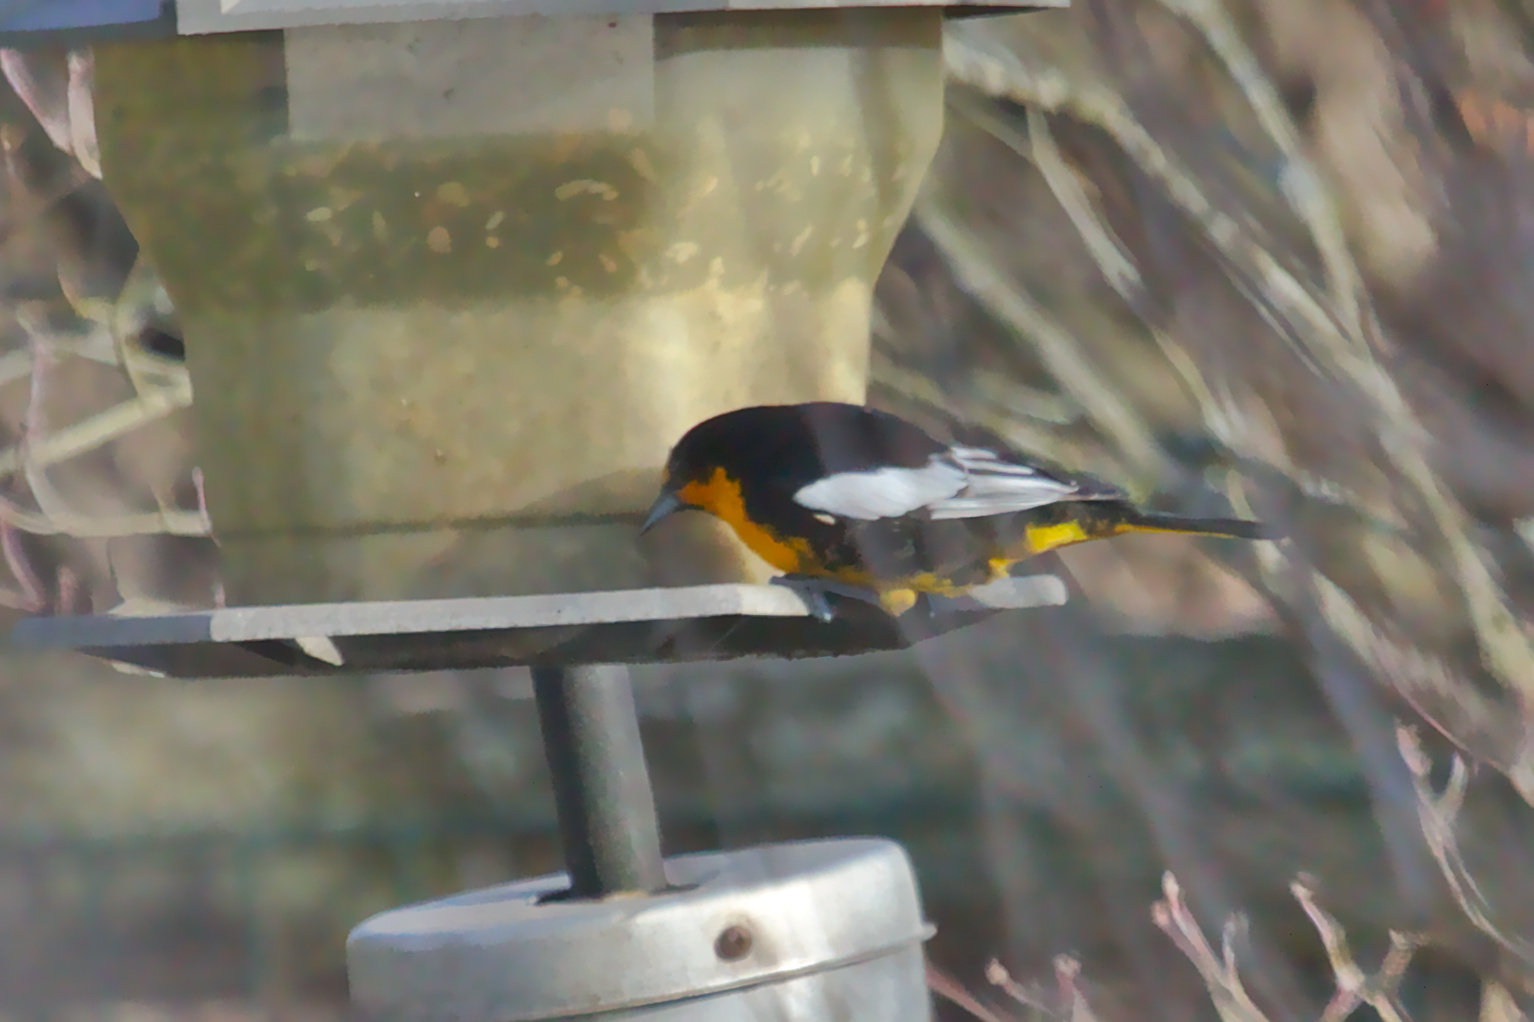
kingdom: Animalia
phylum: Chordata
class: Aves
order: Passeriformes
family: Icteridae
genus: Icterus
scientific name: Icterus abeillei
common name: Black-backed oriole
